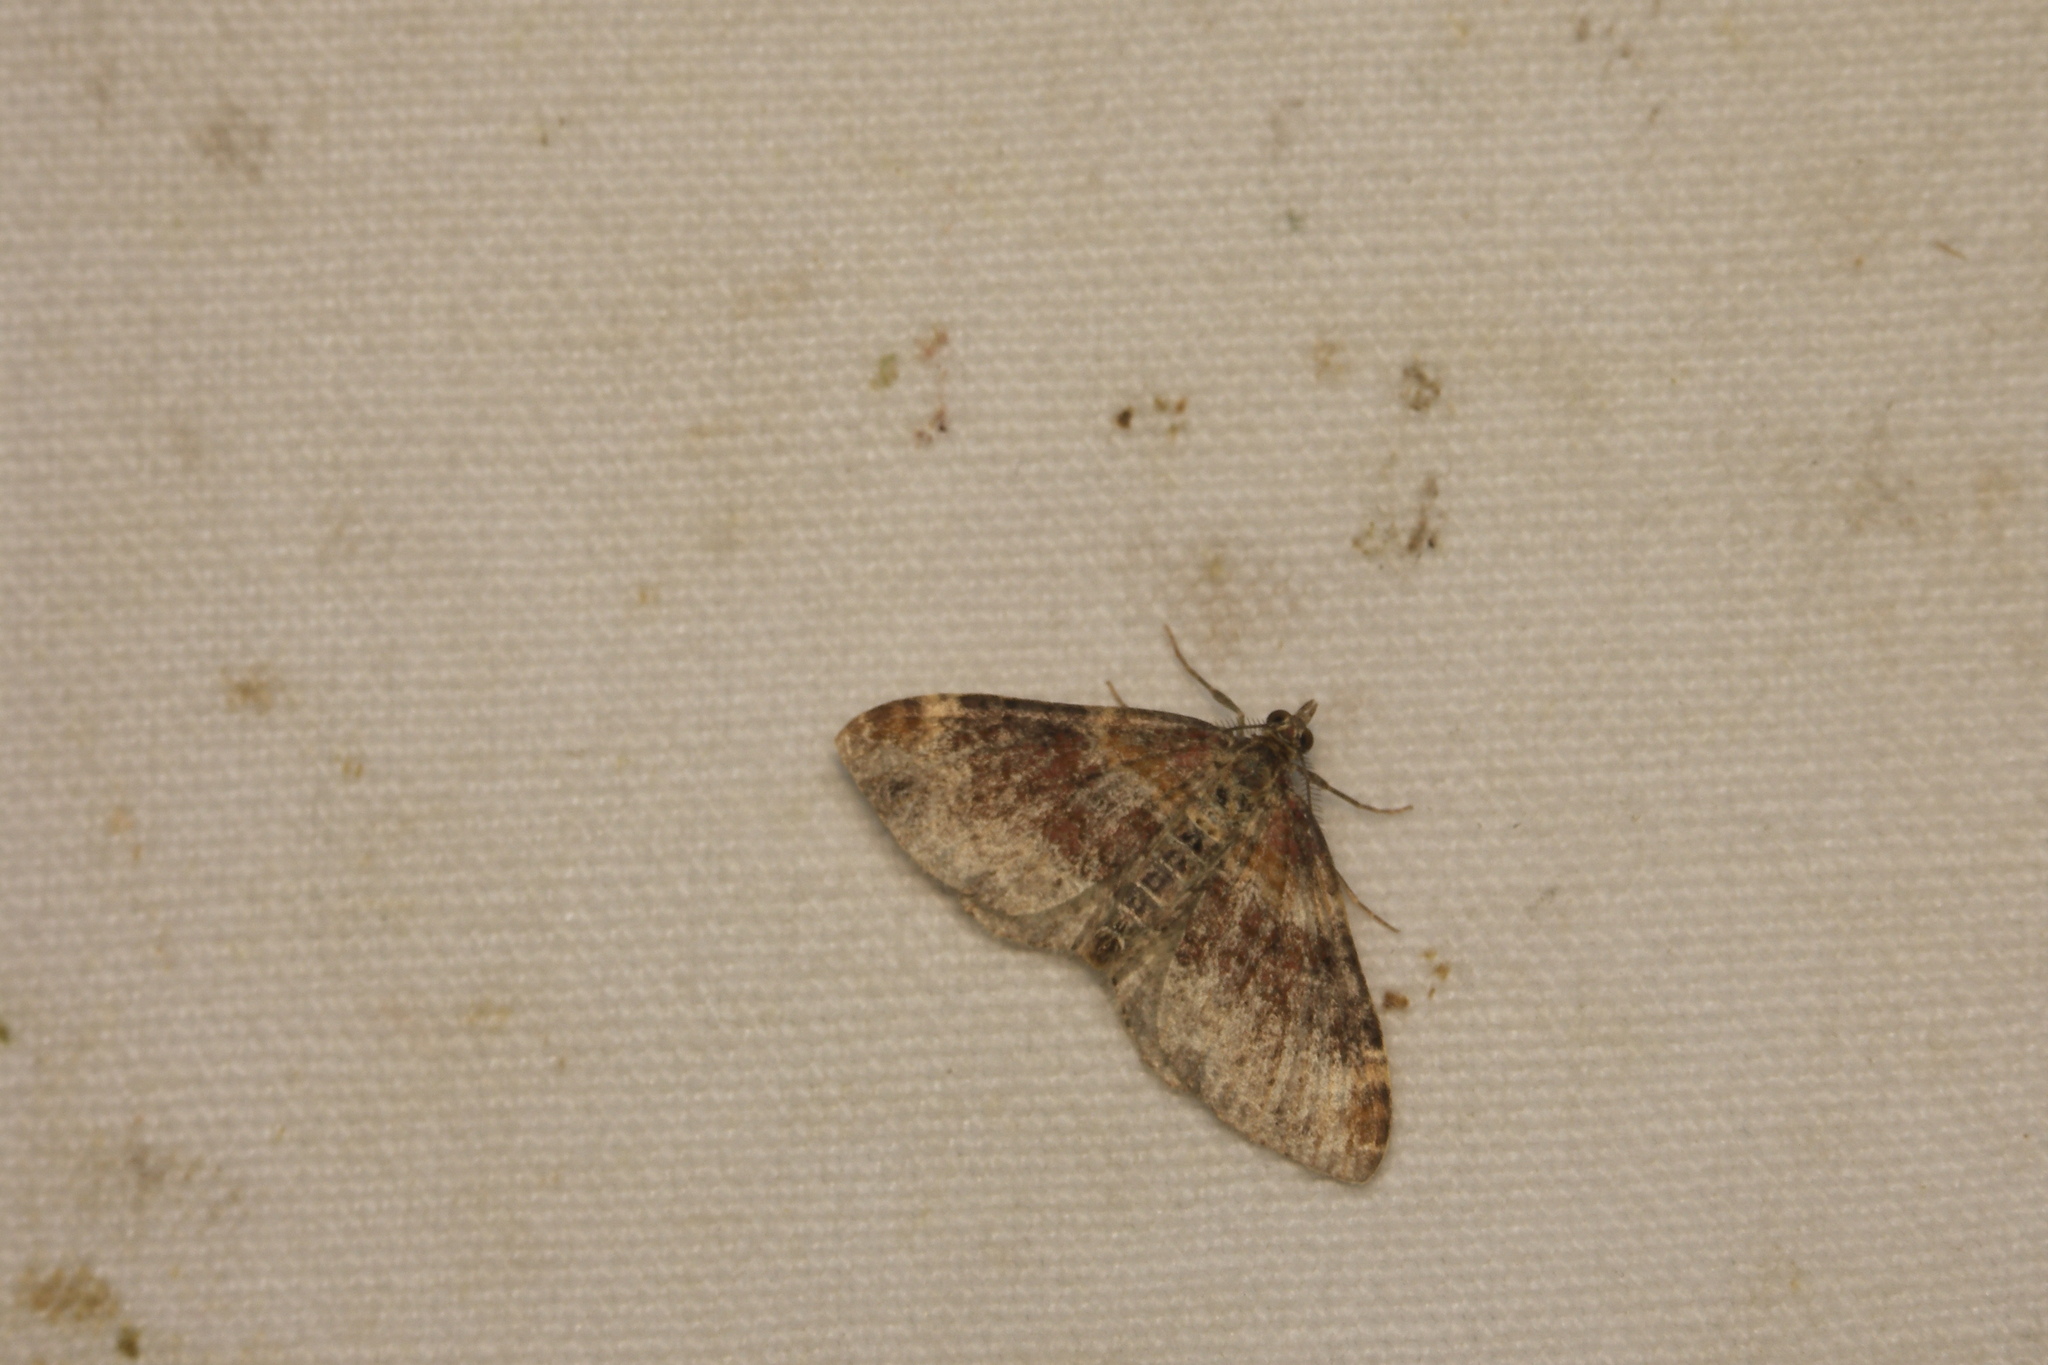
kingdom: Animalia
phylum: Arthropoda
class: Insecta
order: Lepidoptera
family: Geometridae
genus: Xanthorhoe
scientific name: Xanthorhoe spadicearia
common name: Red twin-spot carpet
